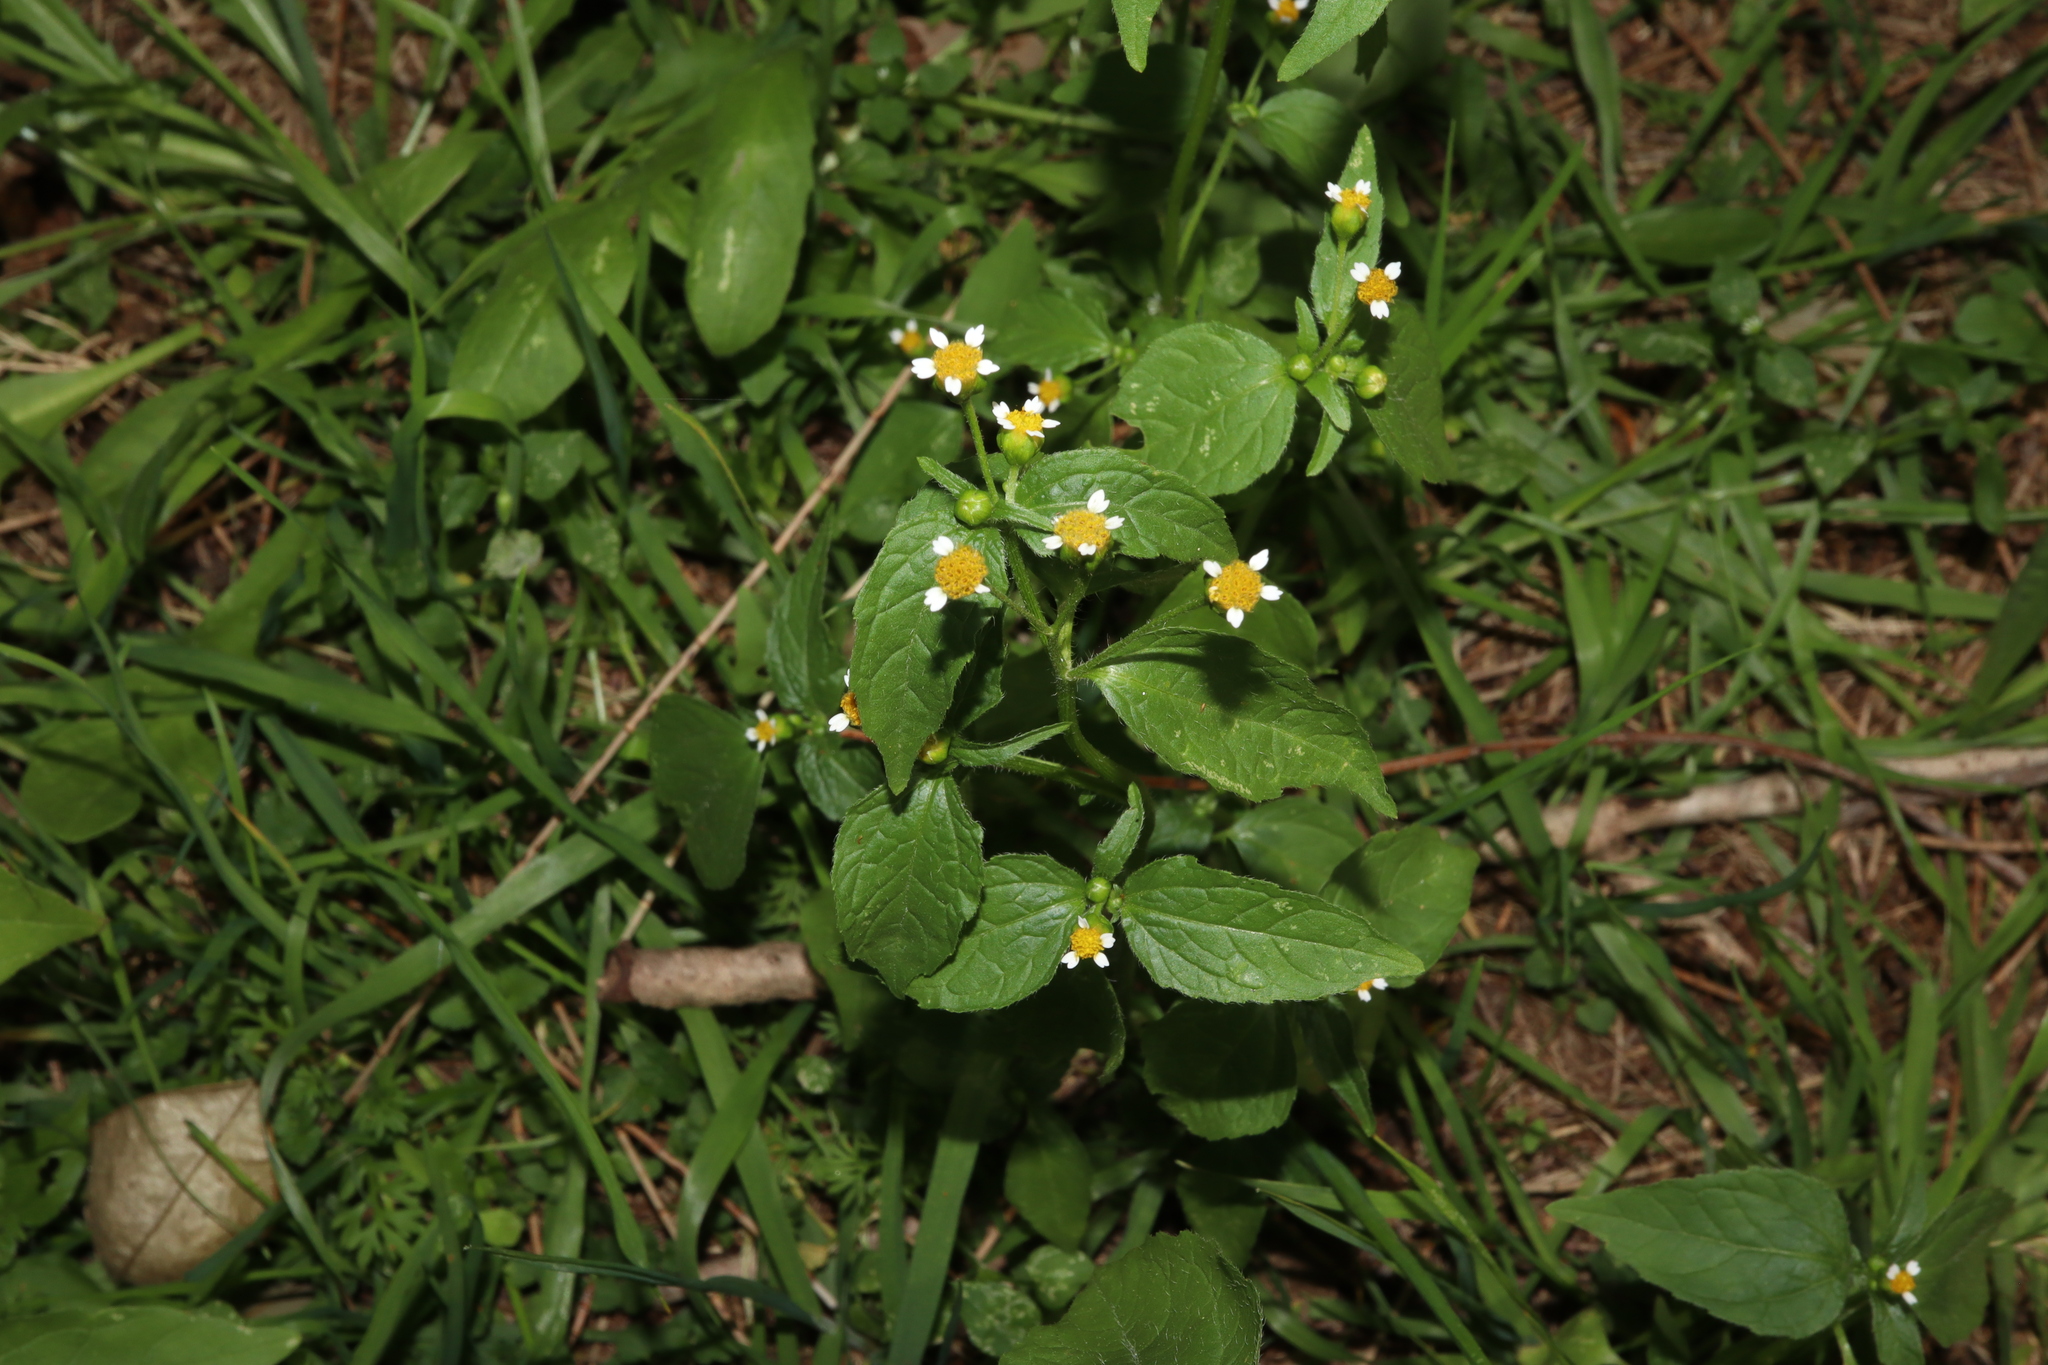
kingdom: Plantae
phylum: Tracheophyta
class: Magnoliopsida
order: Asterales
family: Asteraceae
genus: Galinsoga
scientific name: Galinsoga parviflora
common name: Gallant soldier
